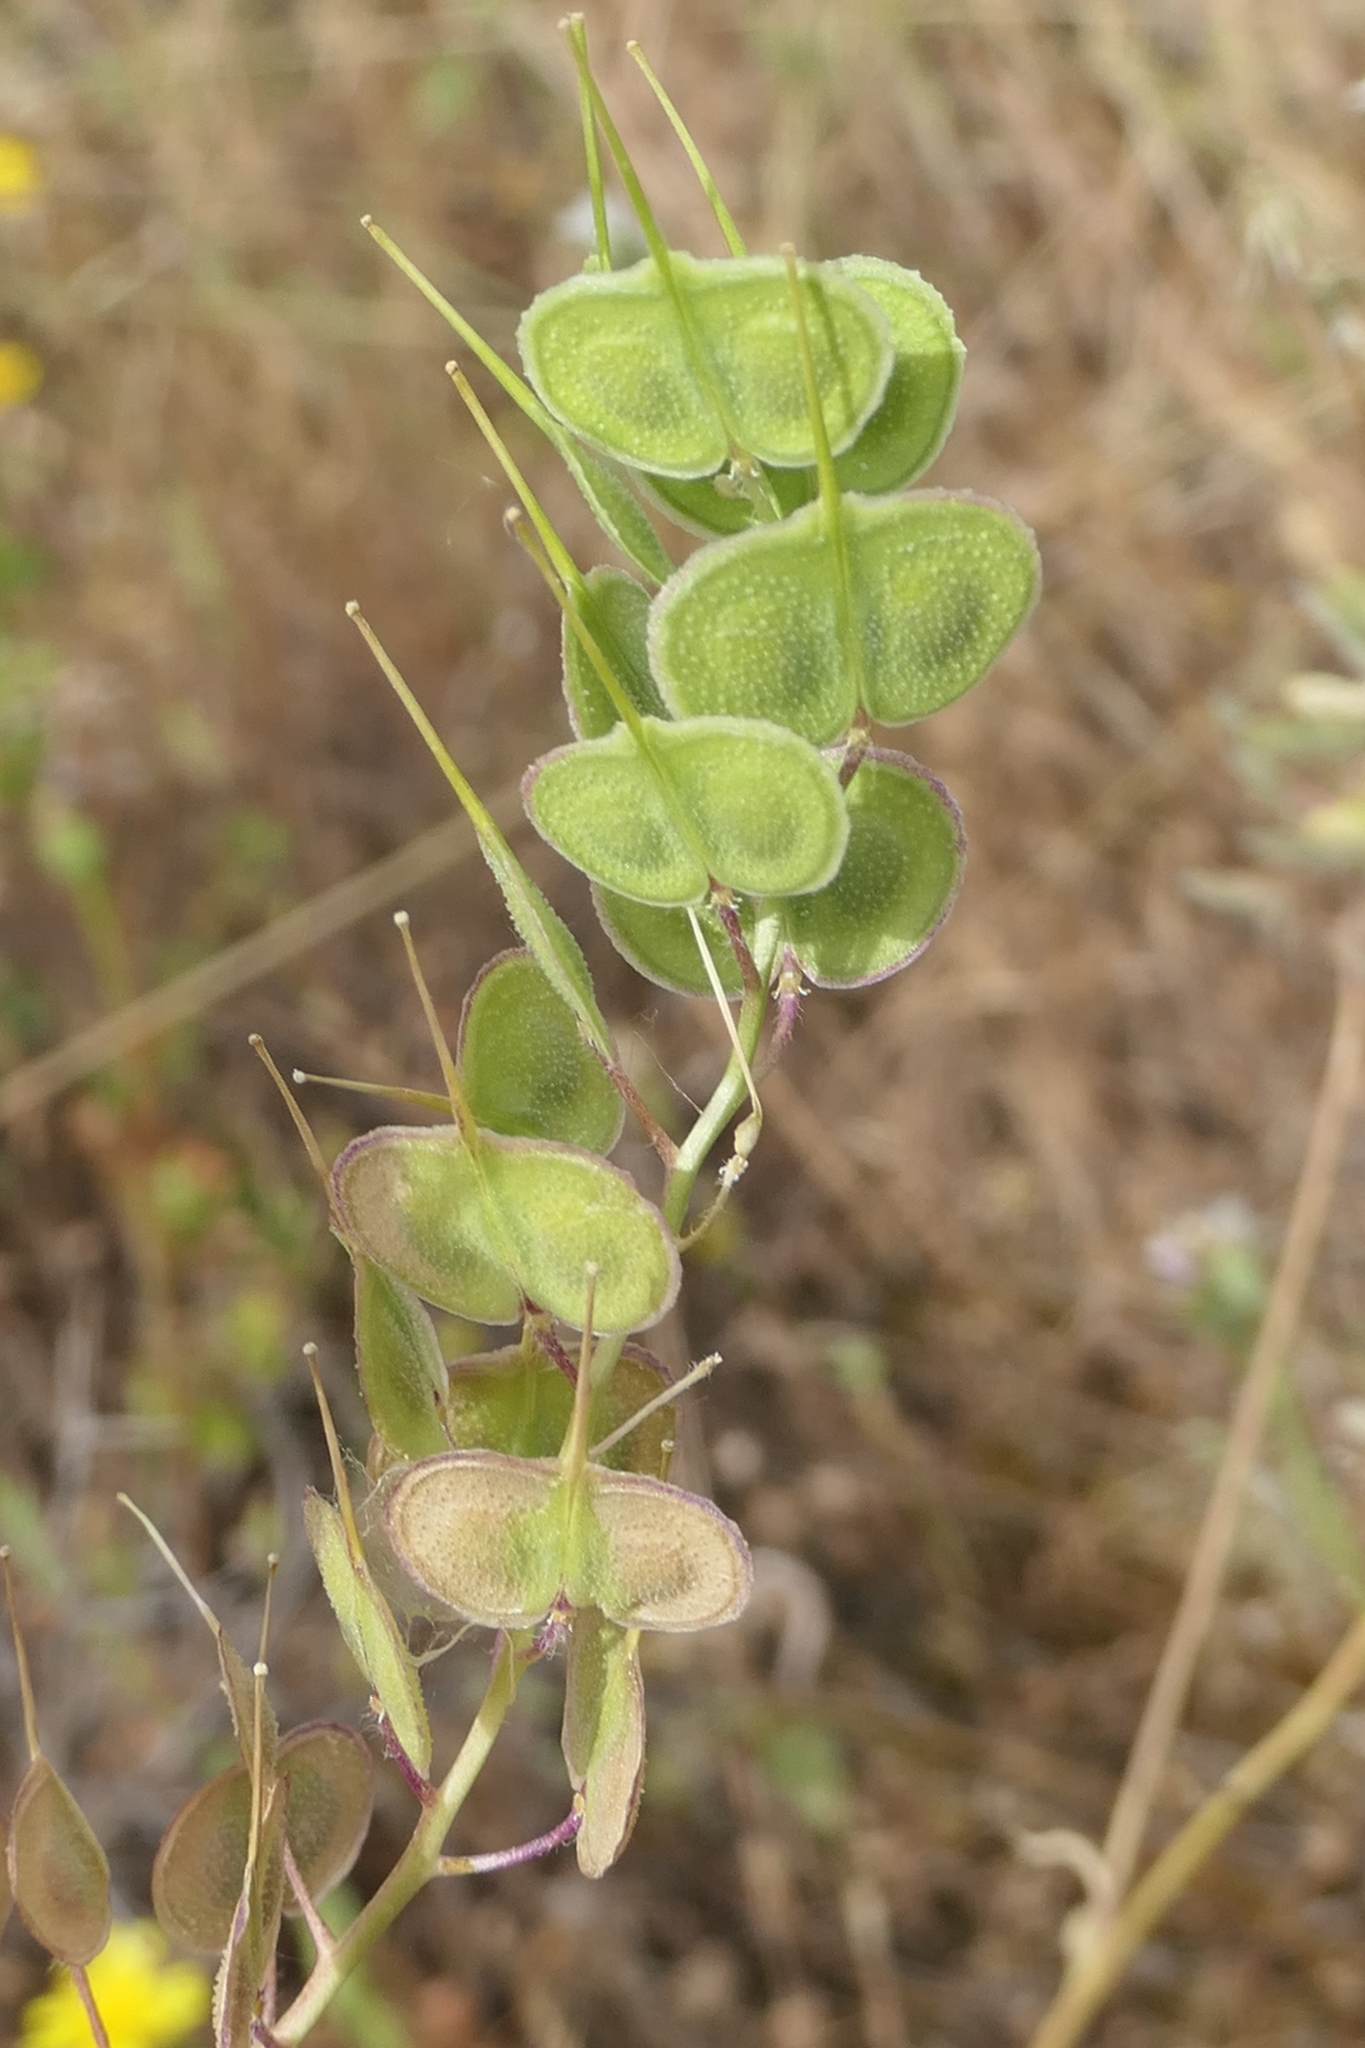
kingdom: Plantae
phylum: Tracheophyta
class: Magnoliopsida
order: Brassicales
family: Brassicaceae
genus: Biscutella
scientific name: Biscutella auriculata
